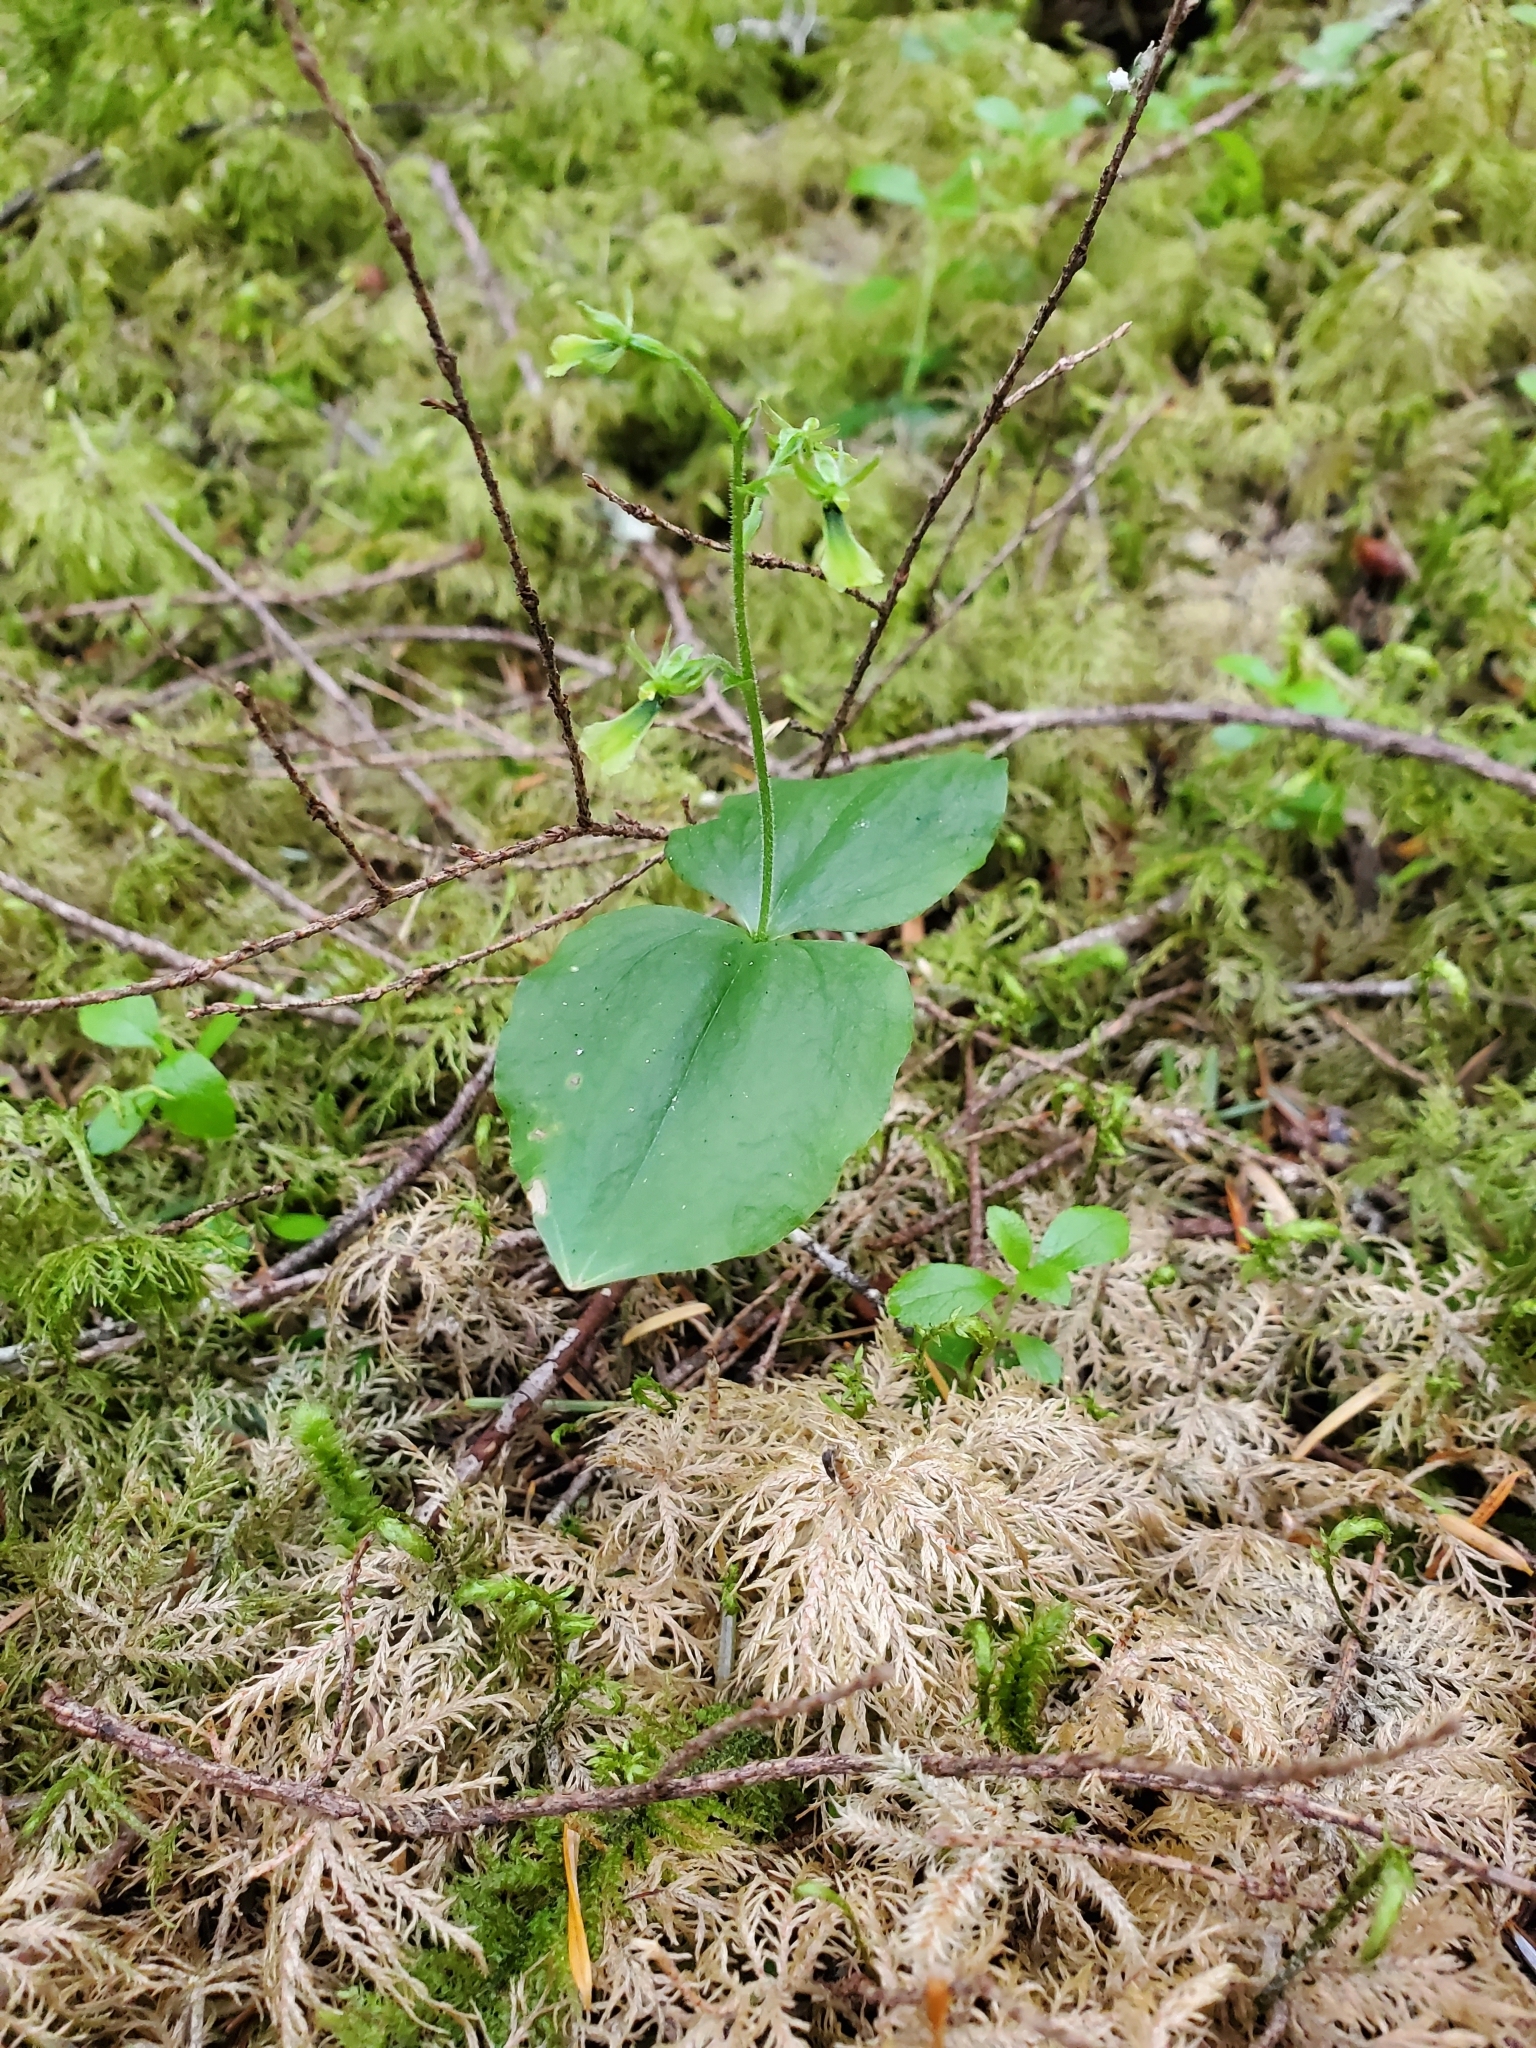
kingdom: Plantae
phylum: Tracheophyta
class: Liliopsida
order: Asparagales
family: Orchidaceae
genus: Neottia
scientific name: Neottia banksiana
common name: Northwestern twayblade
